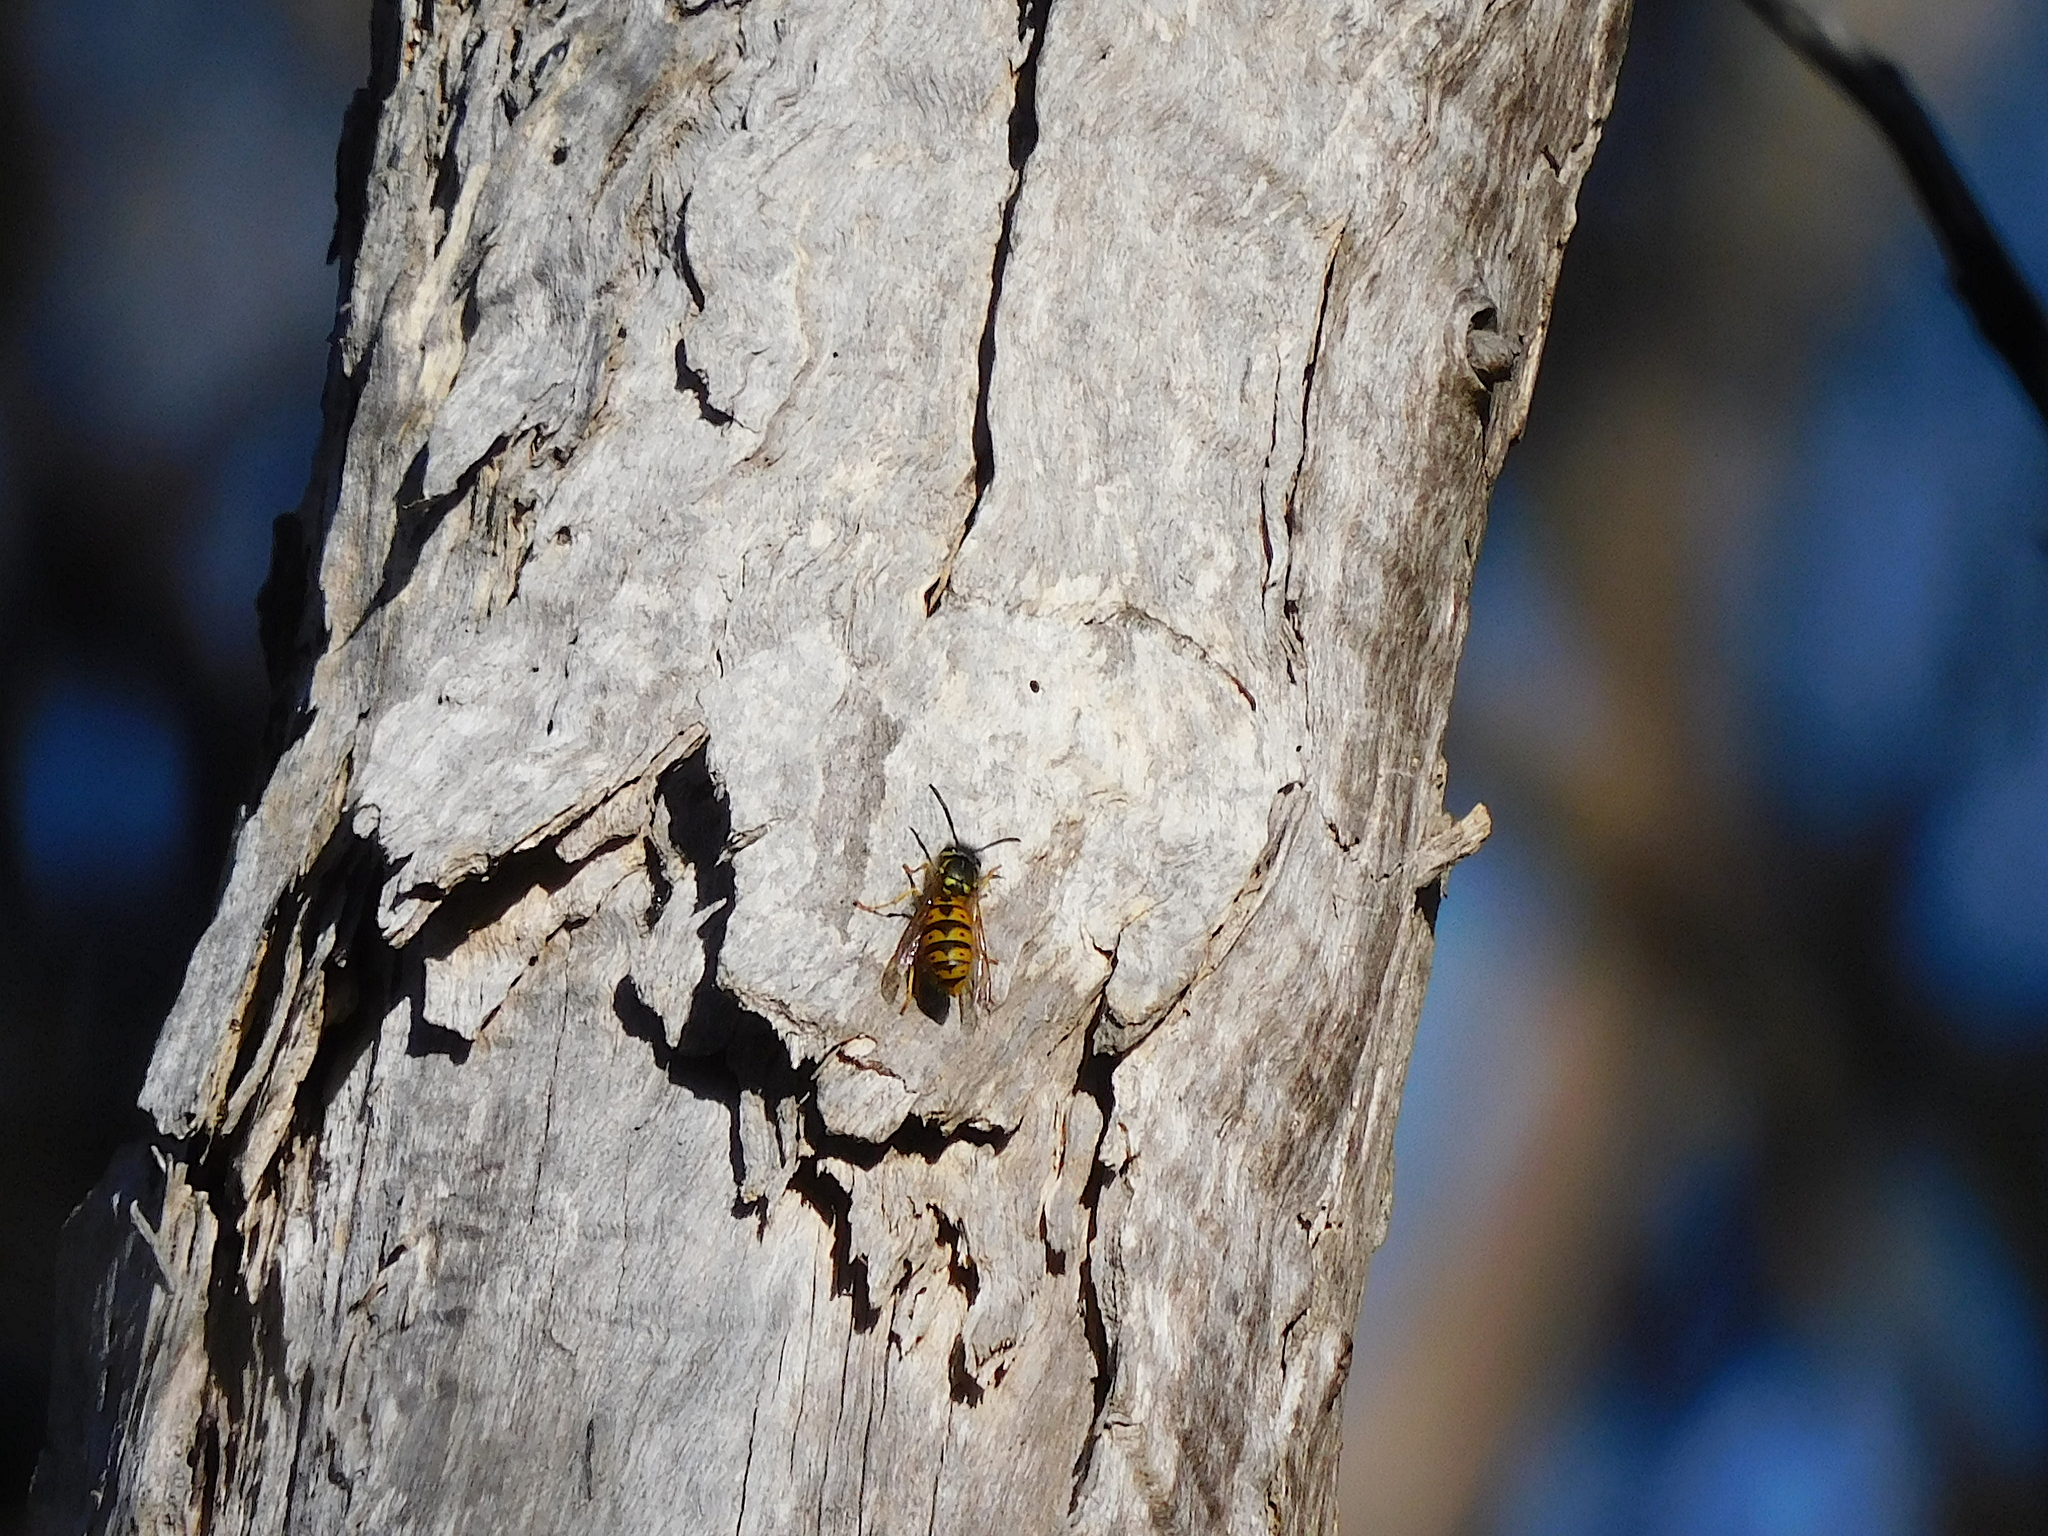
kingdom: Animalia
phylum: Arthropoda
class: Insecta
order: Hymenoptera
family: Vespidae
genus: Vespula
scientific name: Vespula germanica
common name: German wasp
